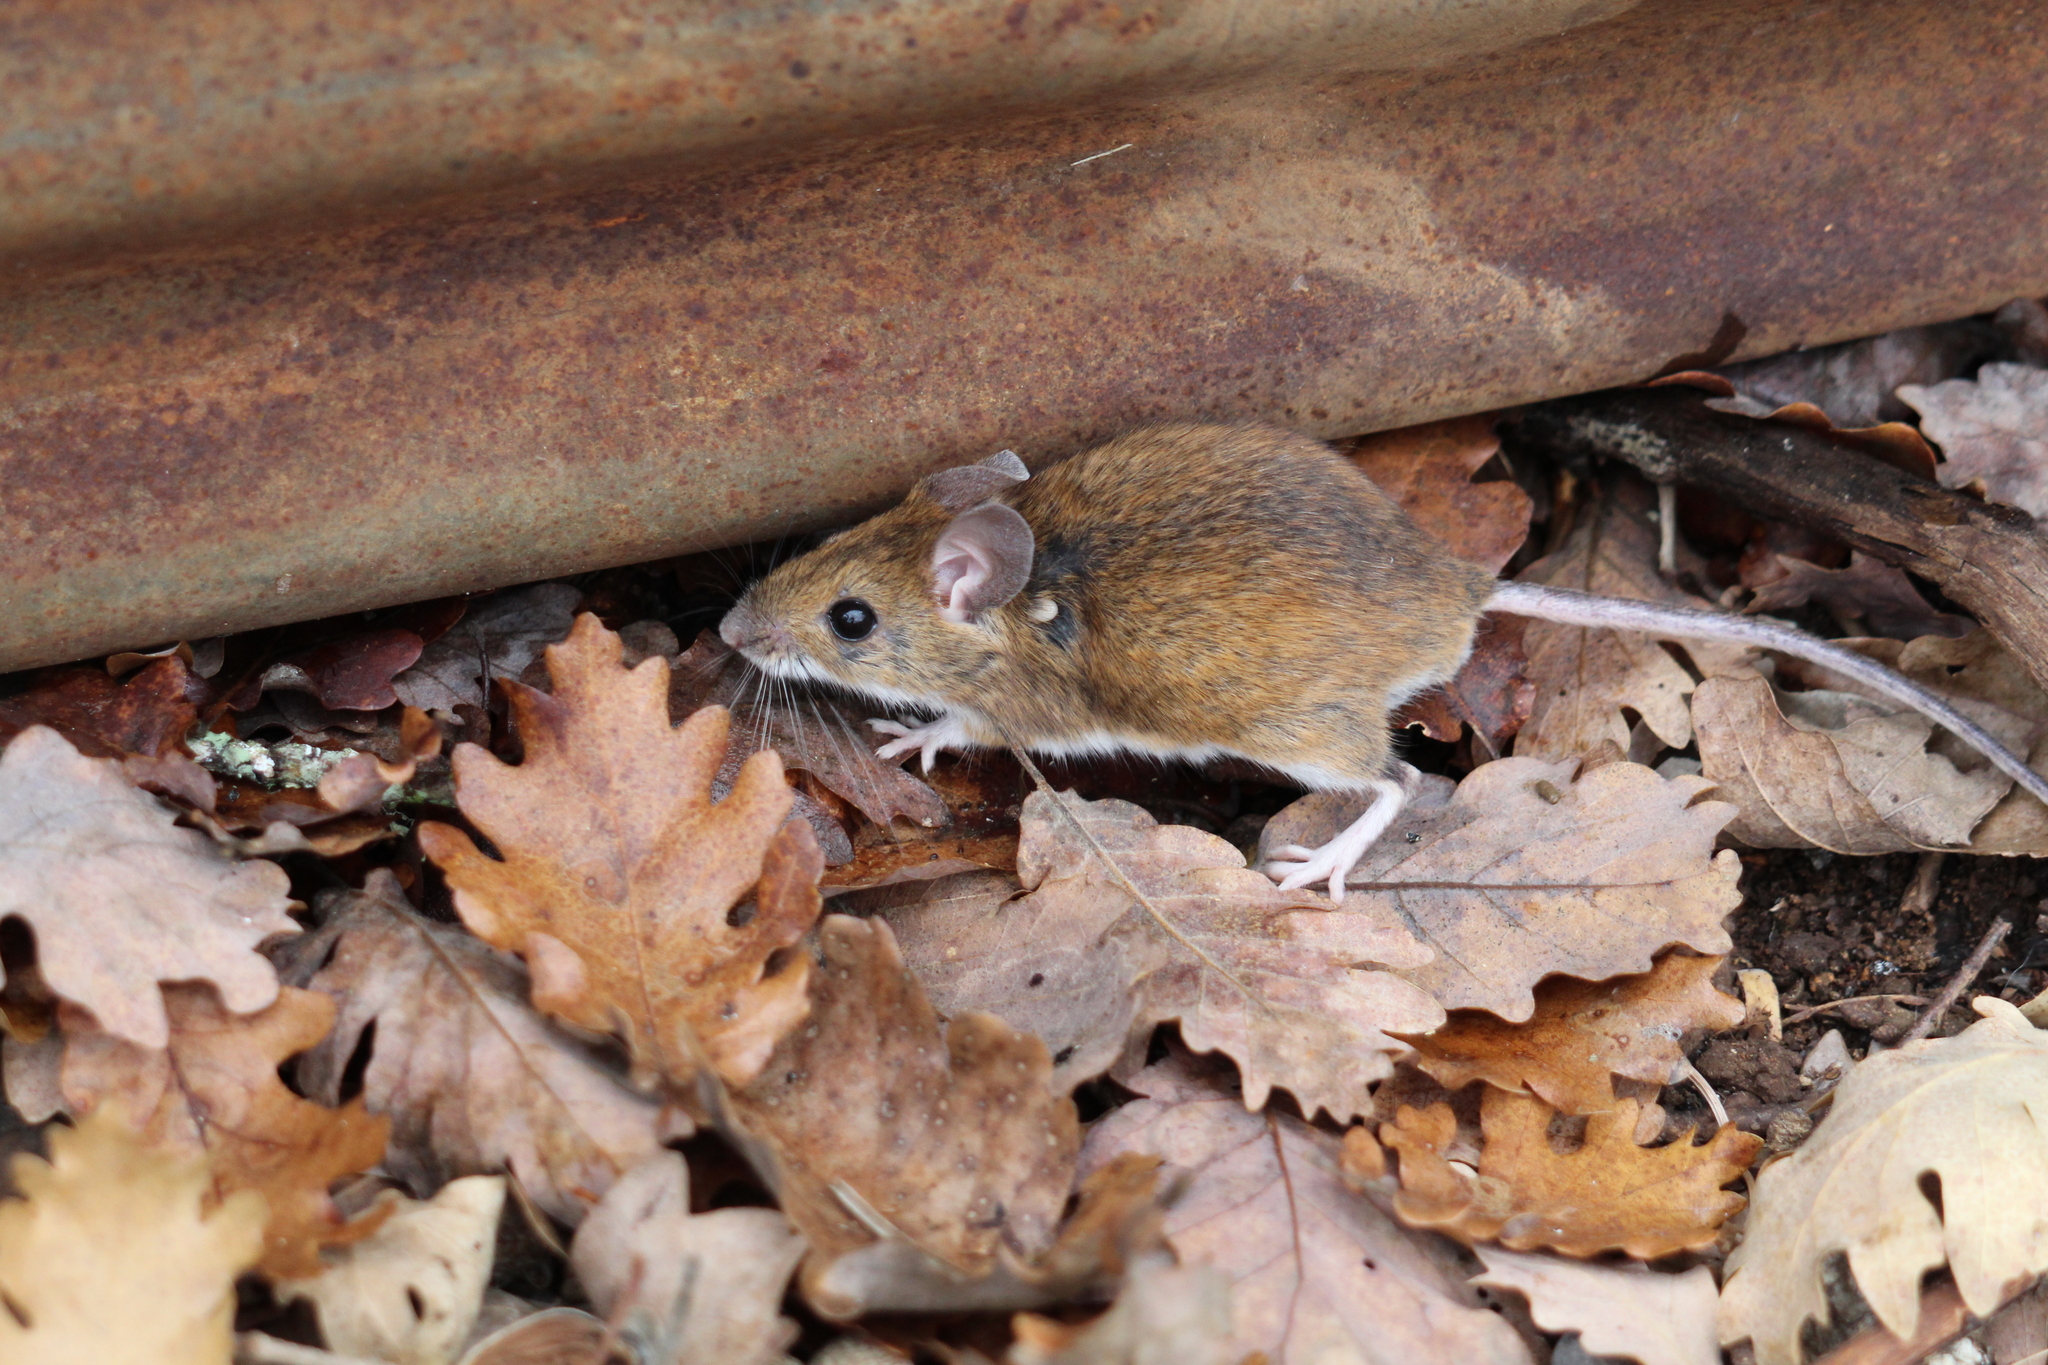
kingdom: Animalia
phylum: Chordata
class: Mammalia
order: Rodentia
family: Muridae
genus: Apodemus
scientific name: Apodemus
